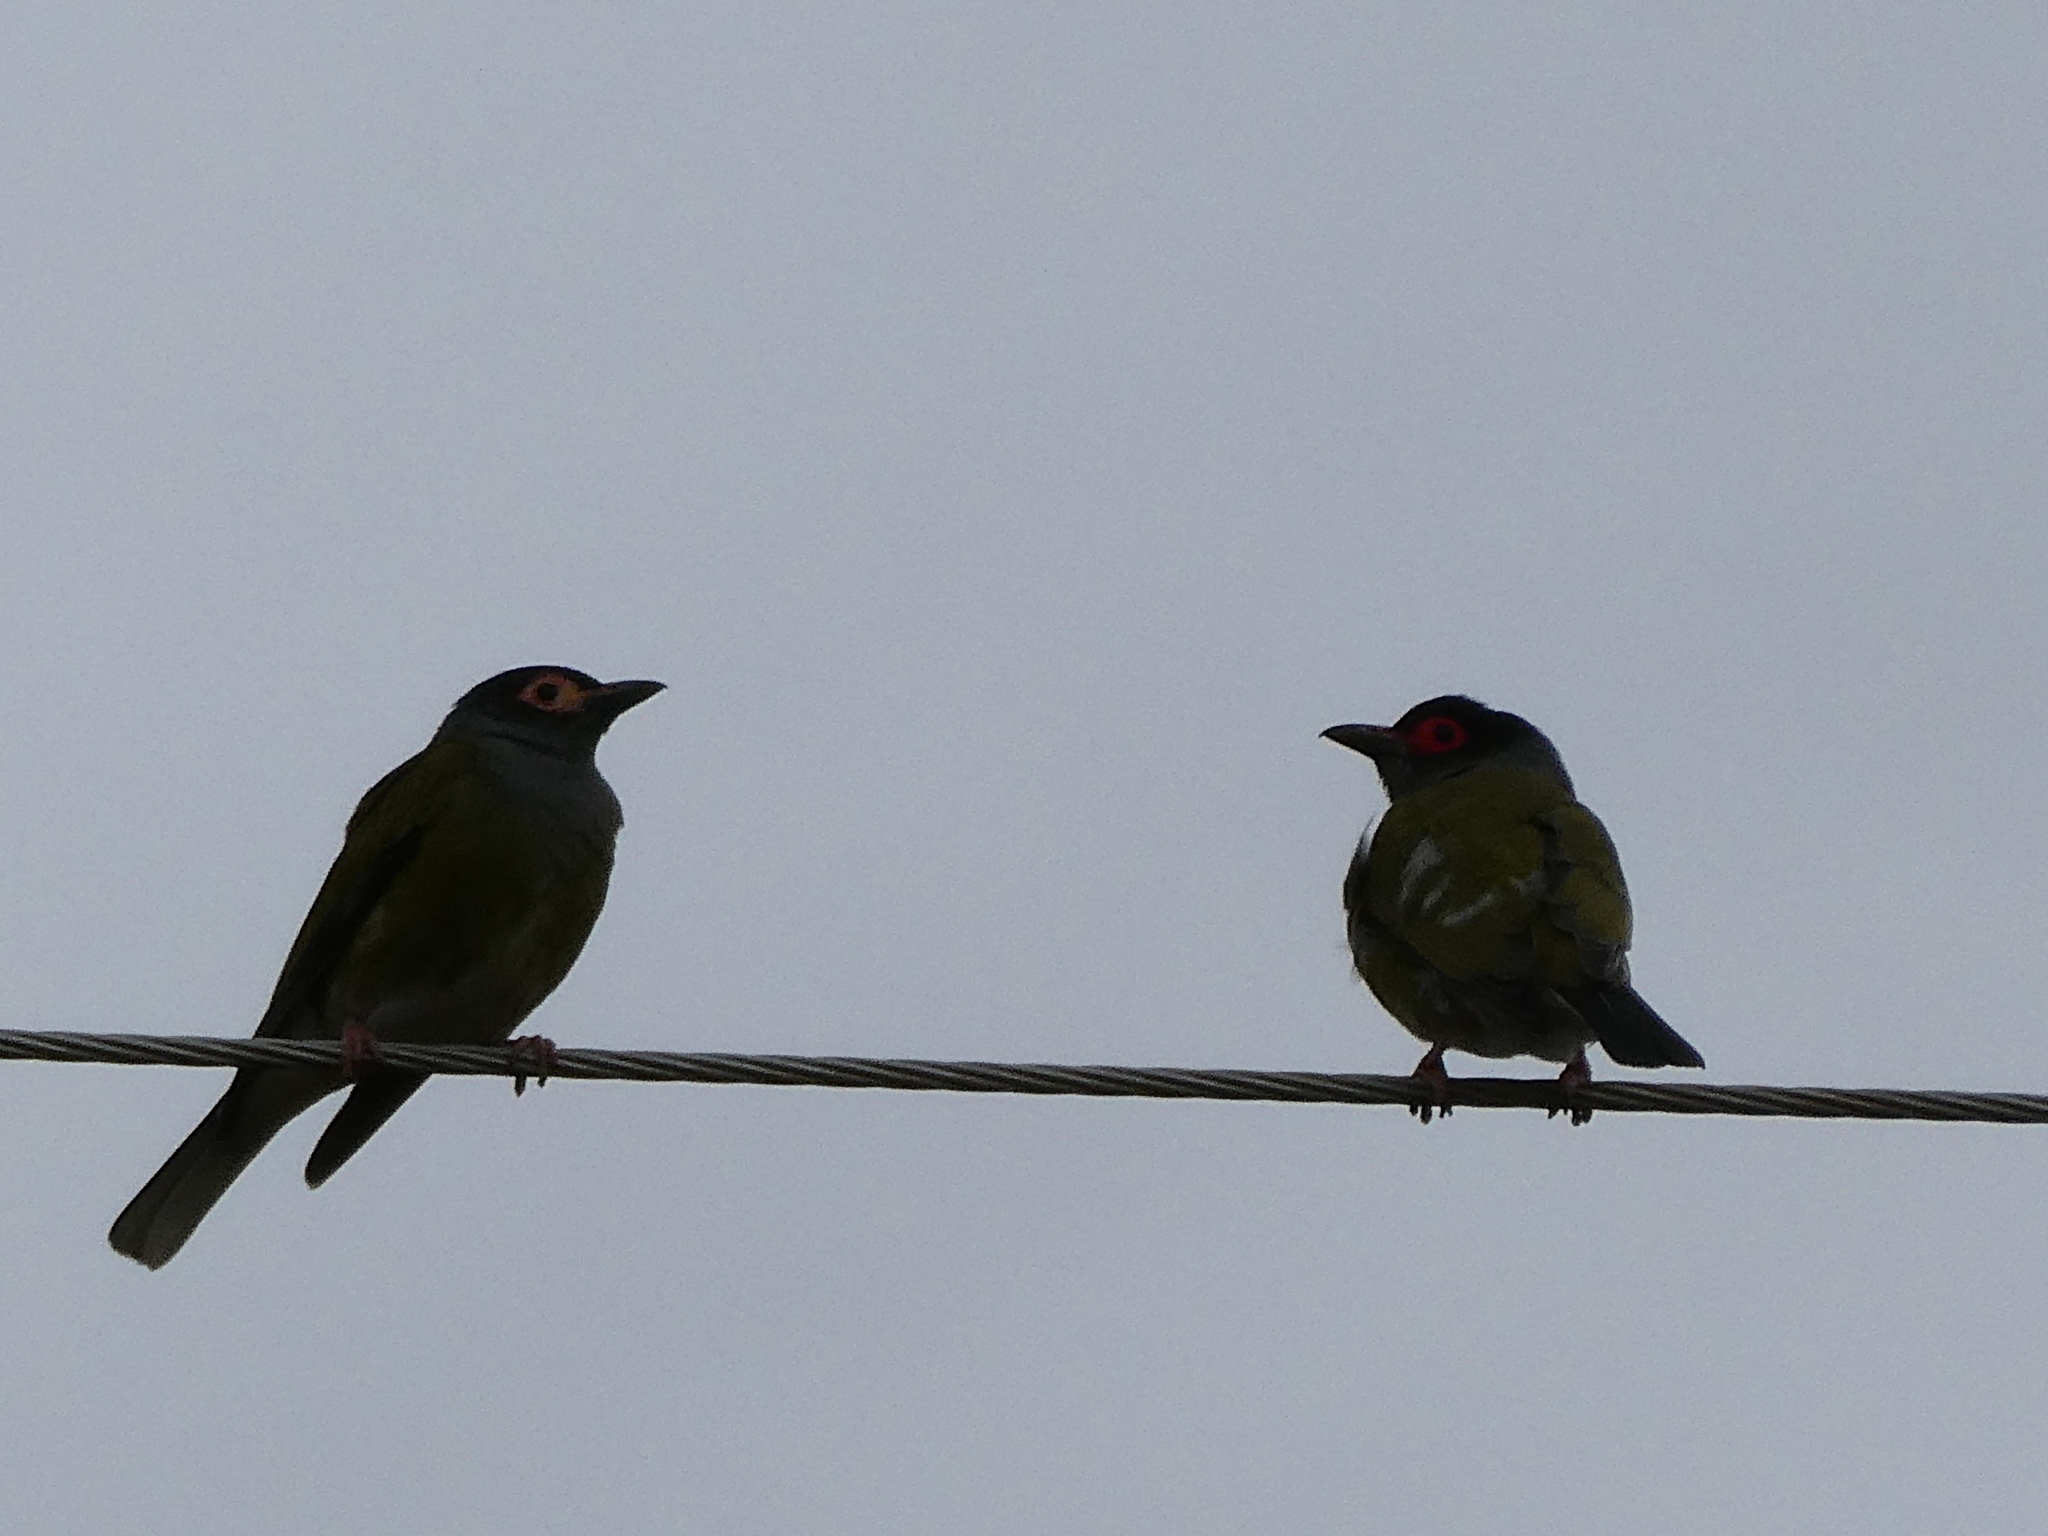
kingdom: Animalia
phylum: Chordata
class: Aves
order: Passeriformes
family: Oriolidae
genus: Sphecotheres
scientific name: Sphecotheres vieilloti
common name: Australasian figbird
